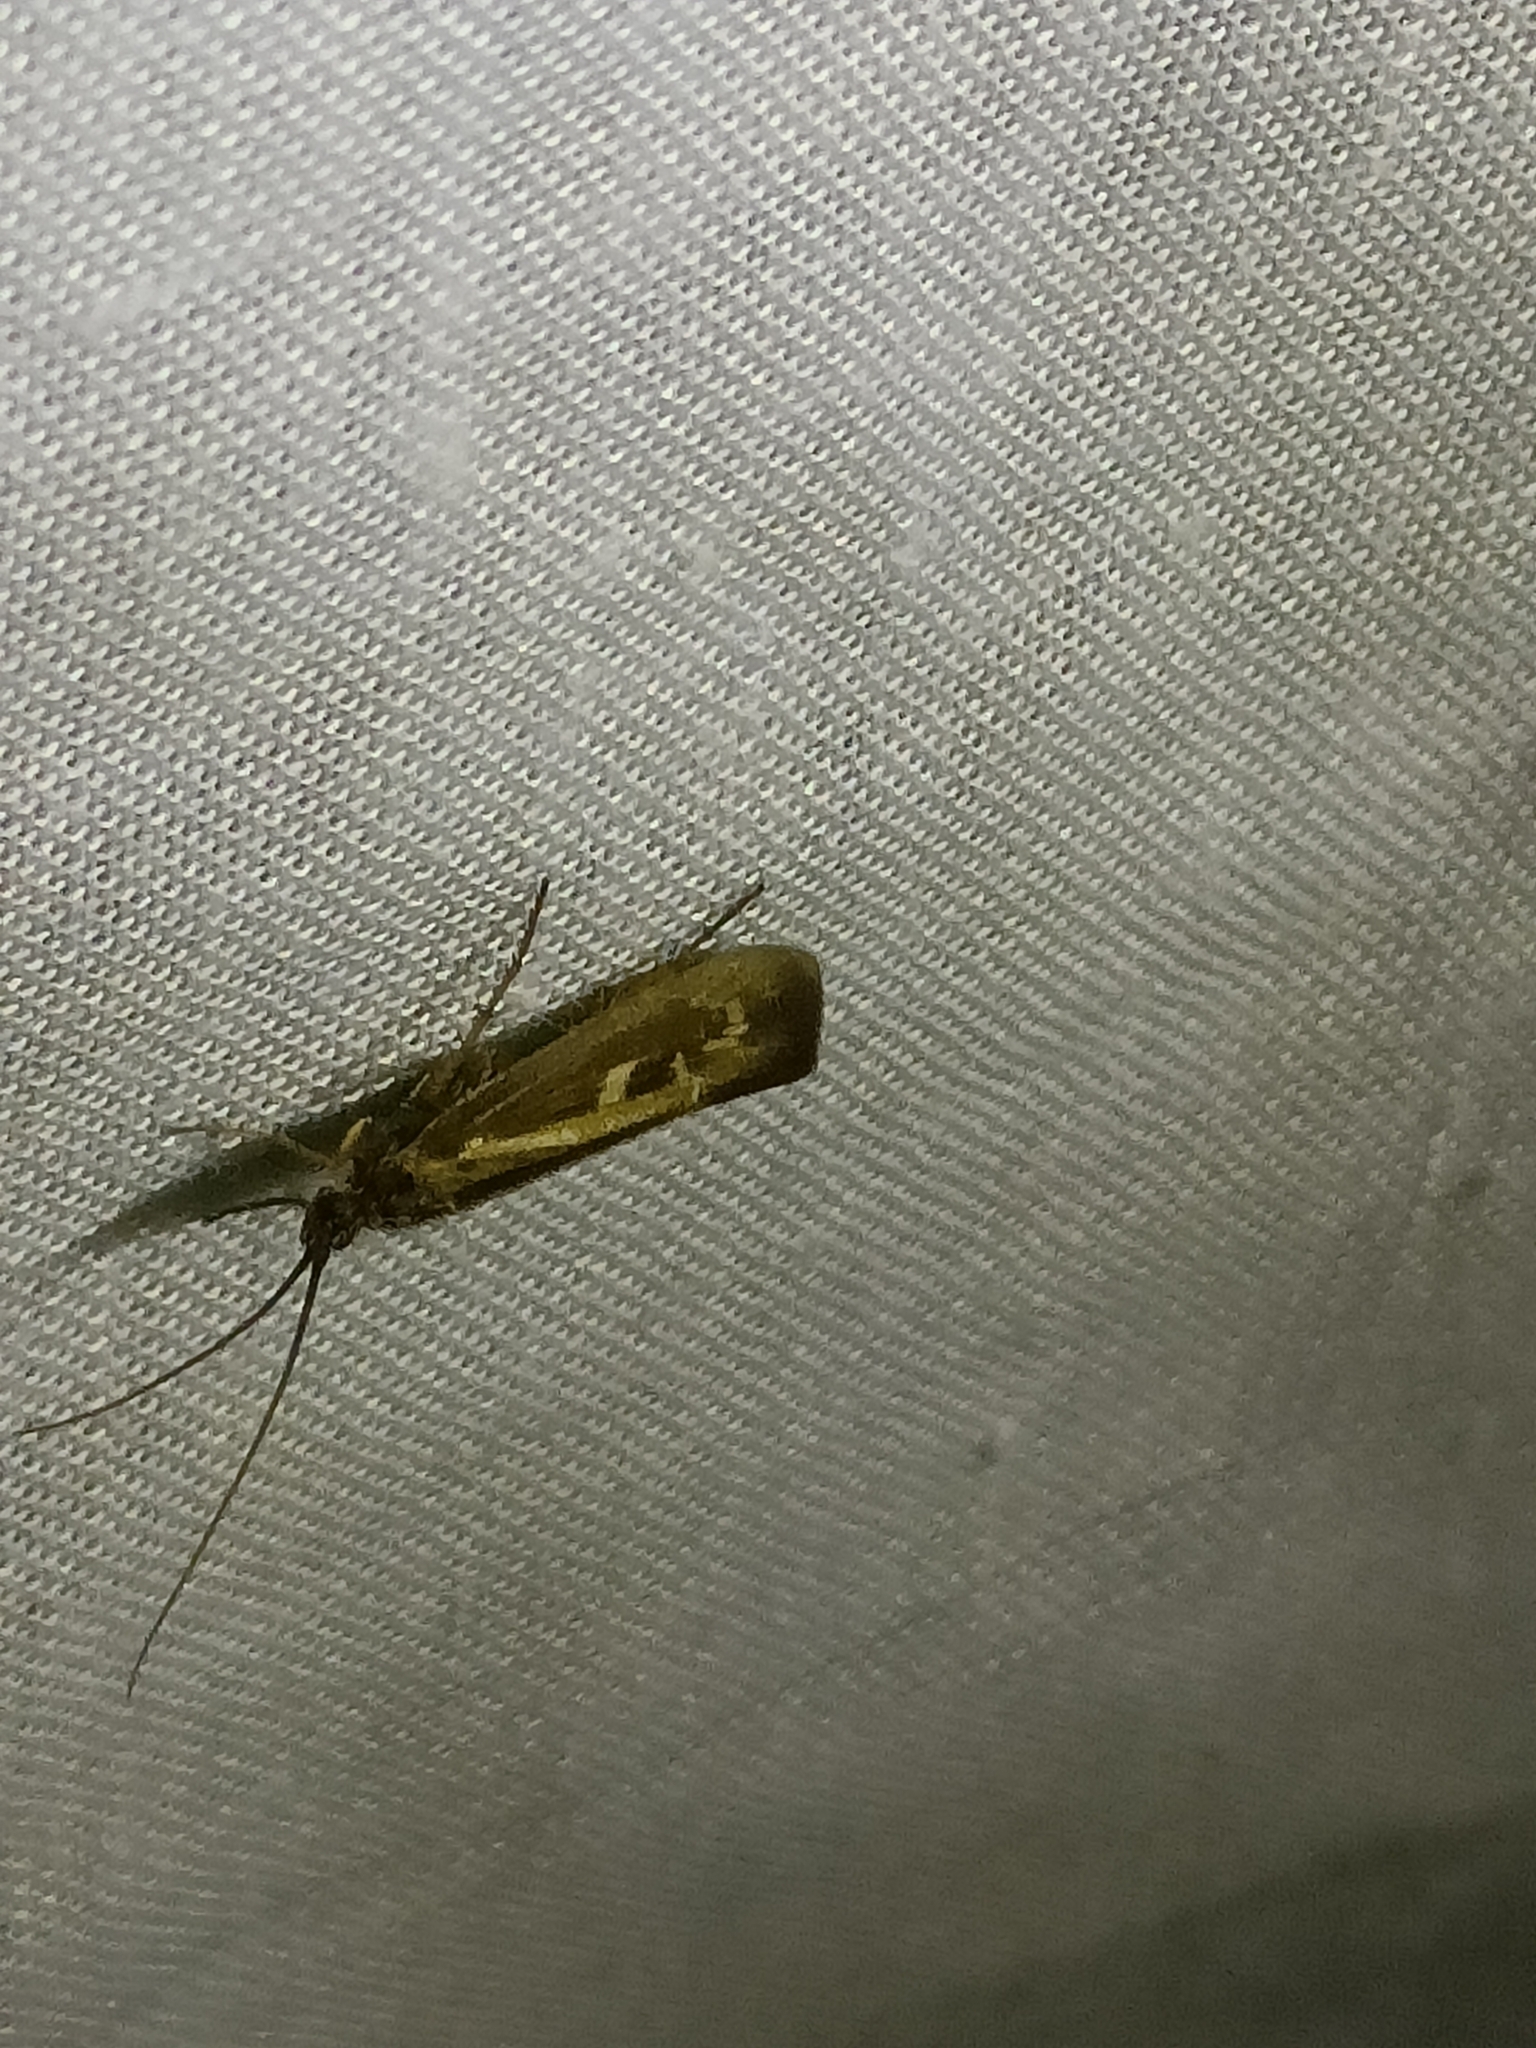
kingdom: Animalia
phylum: Arthropoda
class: Insecta
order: Trichoptera
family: Limnephilidae
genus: Limnephilus
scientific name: Limnephilus auricula
